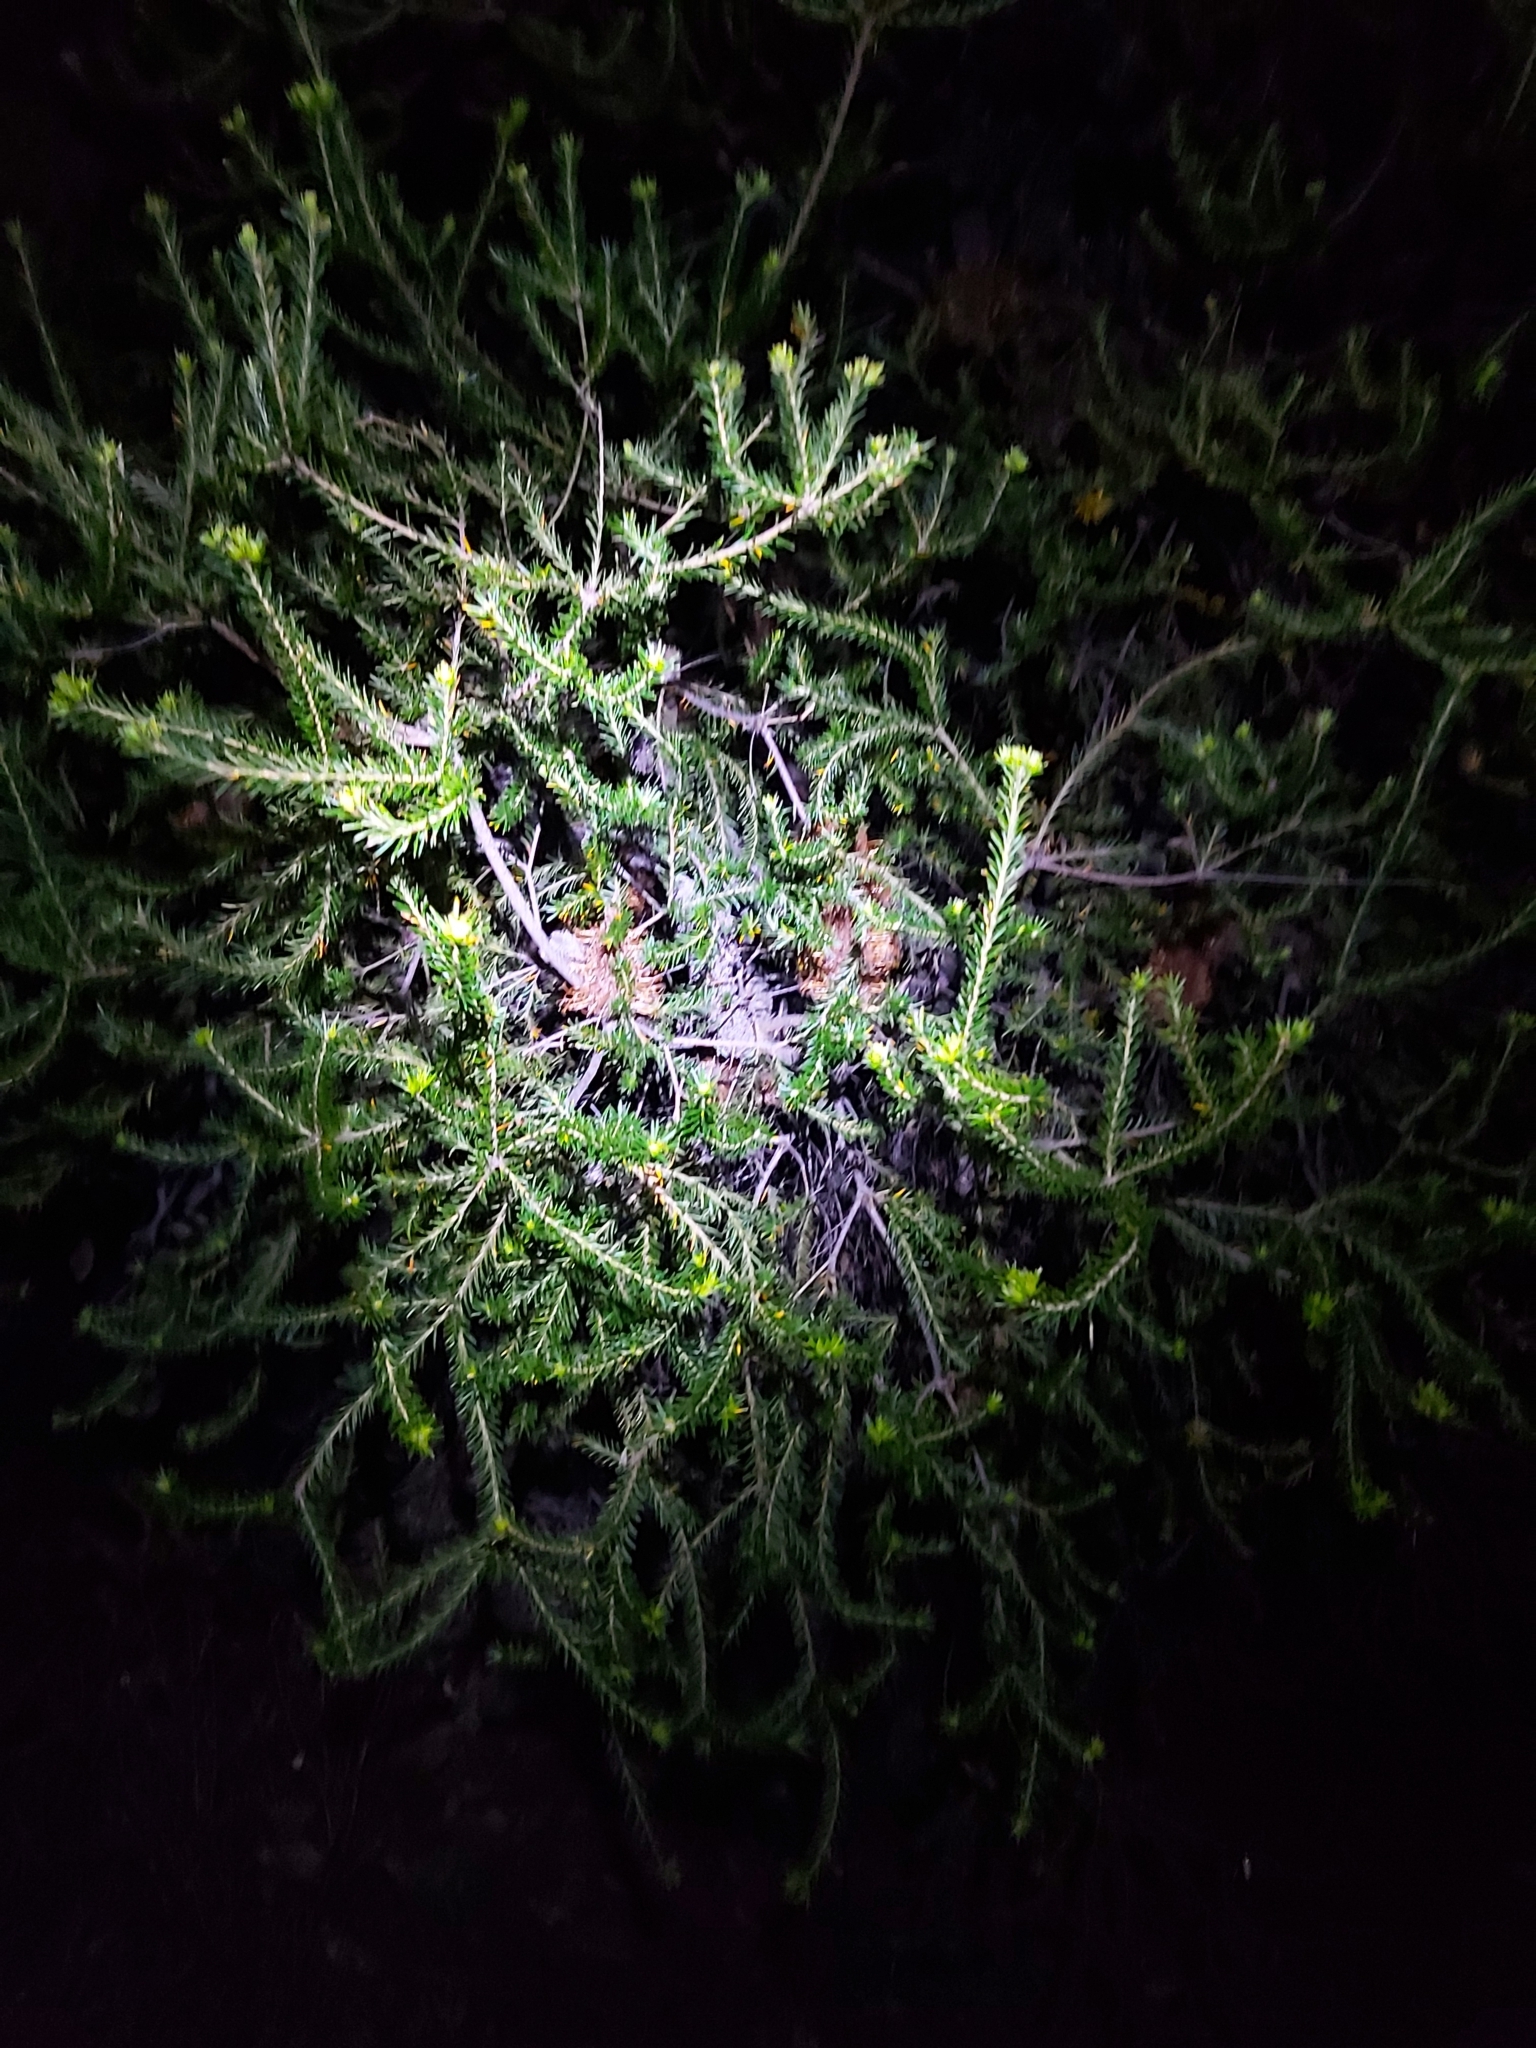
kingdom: Plantae
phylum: Tracheophyta
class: Magnoliopsida
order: Proteales
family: Proteaceae
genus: Banksia
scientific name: Banksia ericifolia
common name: Heath-leaf banksia
